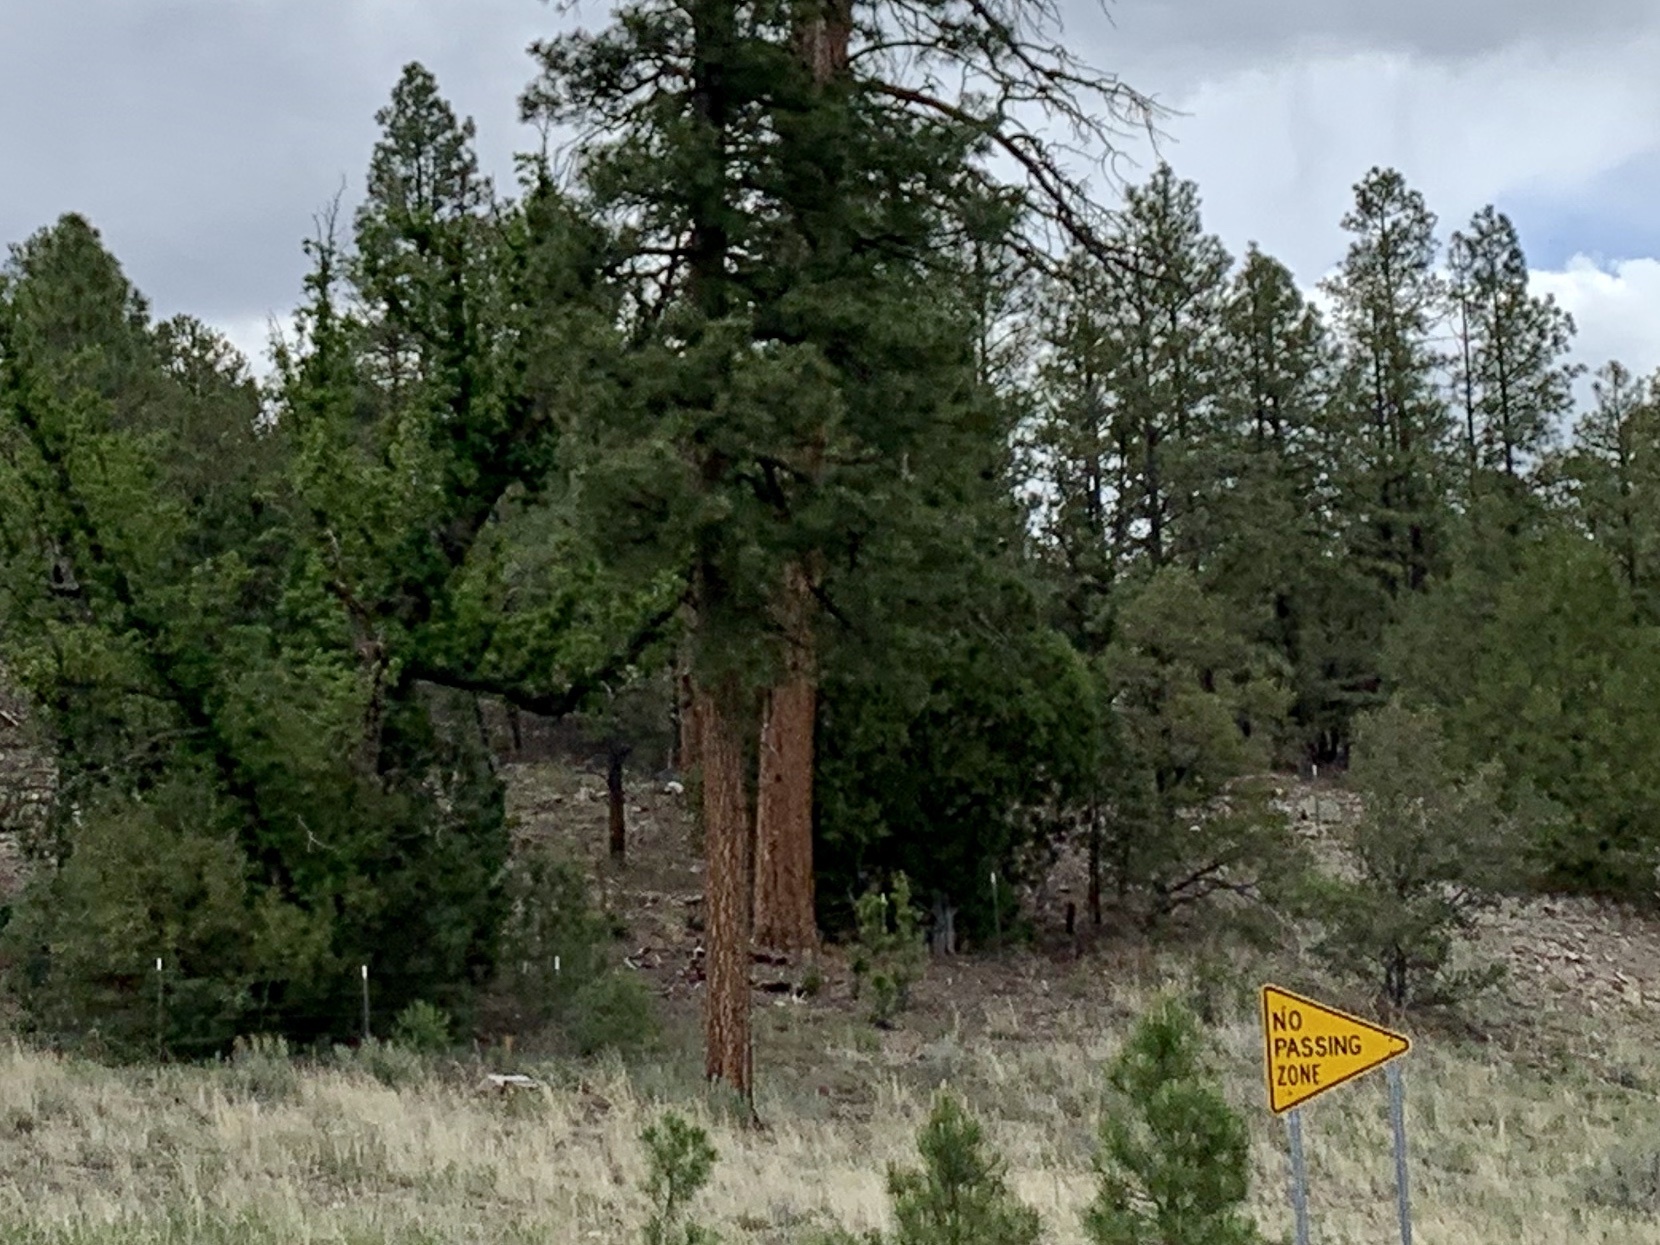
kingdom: Plantae
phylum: Tracheophyta
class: Pinopsida
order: Pinales
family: Pinaceae
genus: Pinus
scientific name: Pinus ponderosa
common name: Western yellow-pine
